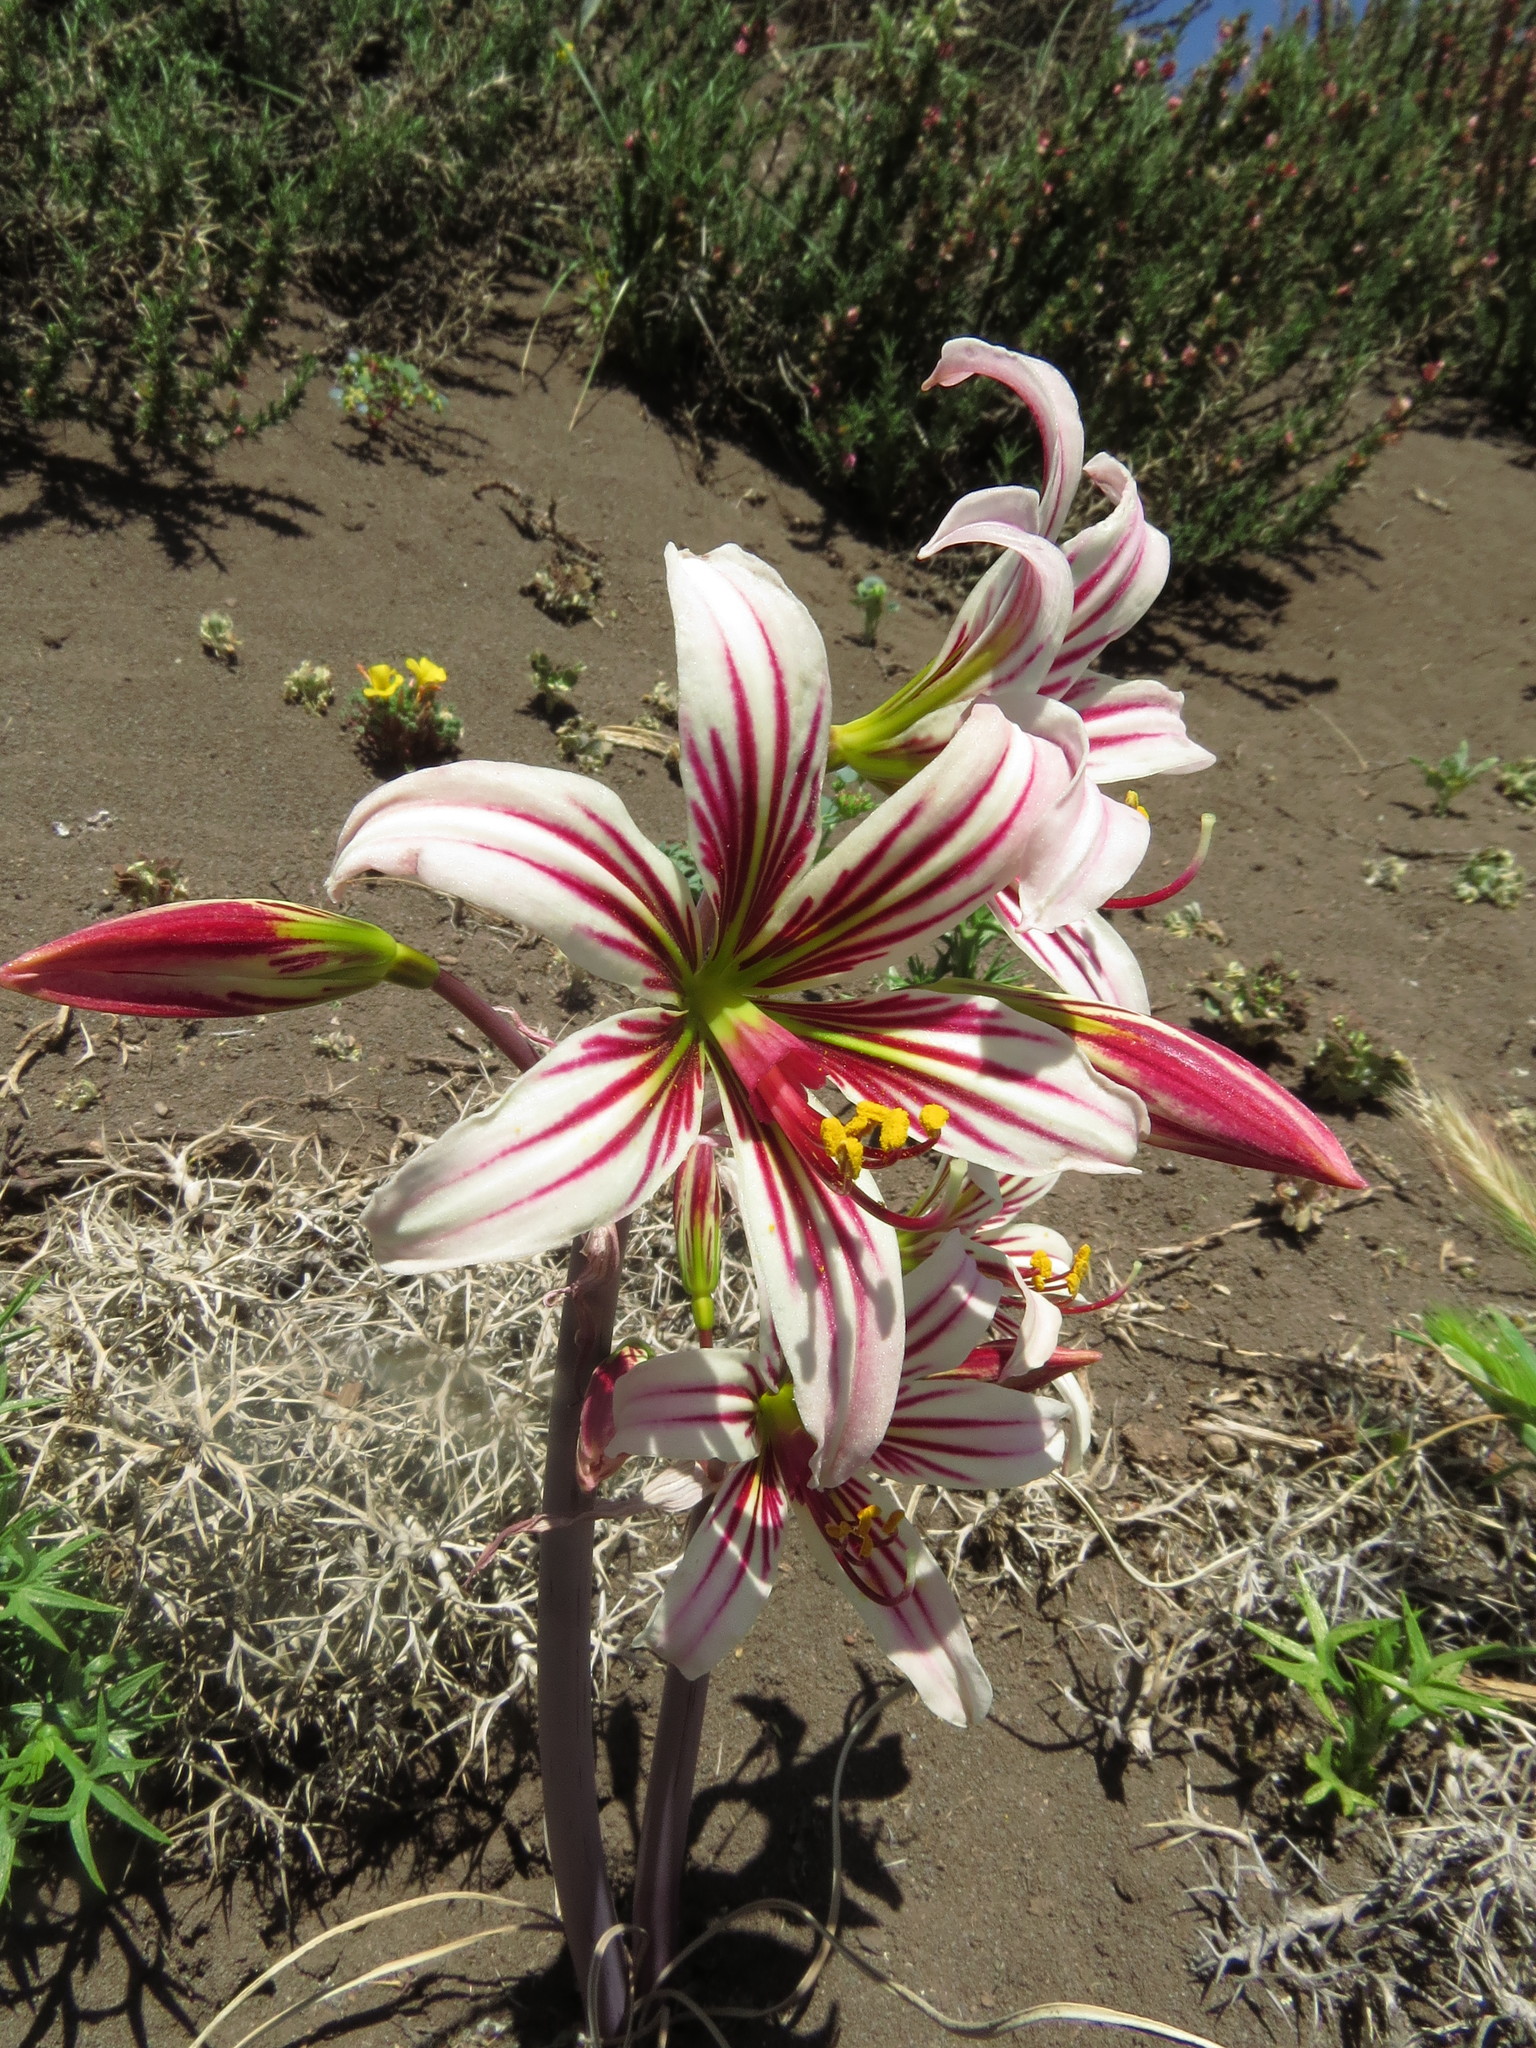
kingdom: Plantae
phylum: Tracheophyta
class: Liliopsida
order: Asparagales
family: Amaryllidaceae
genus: Phycella
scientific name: Phycella arzae
